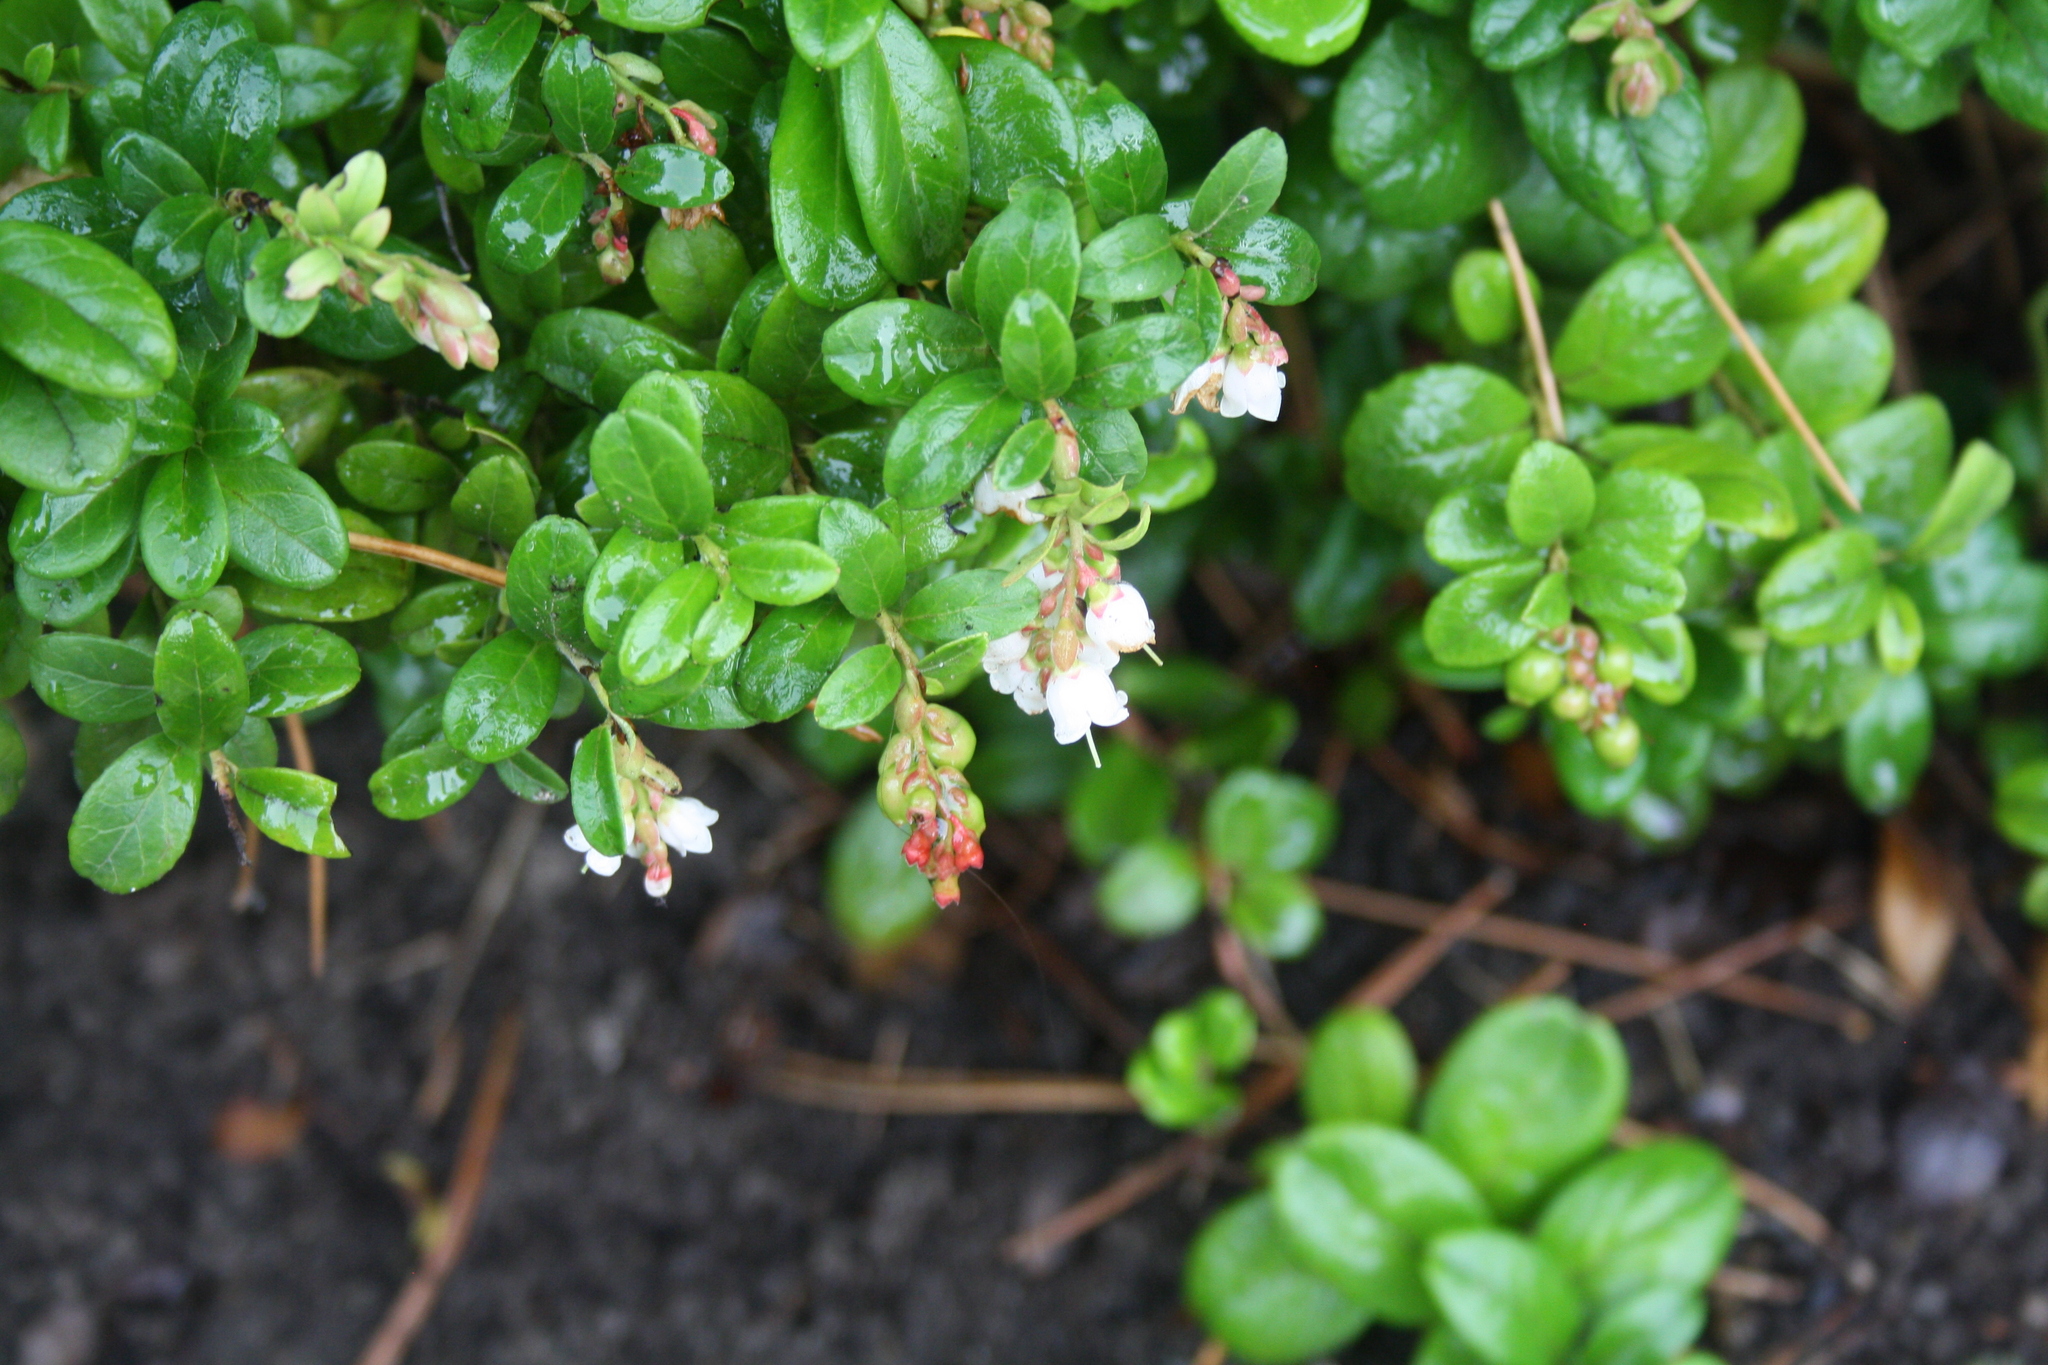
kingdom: Plantae
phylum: Tracheophyta
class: Magnoliopsida
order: Ericales
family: Ericaceae
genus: Vaccinium
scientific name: Vaccinium vitis-idaea
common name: Cowberry
